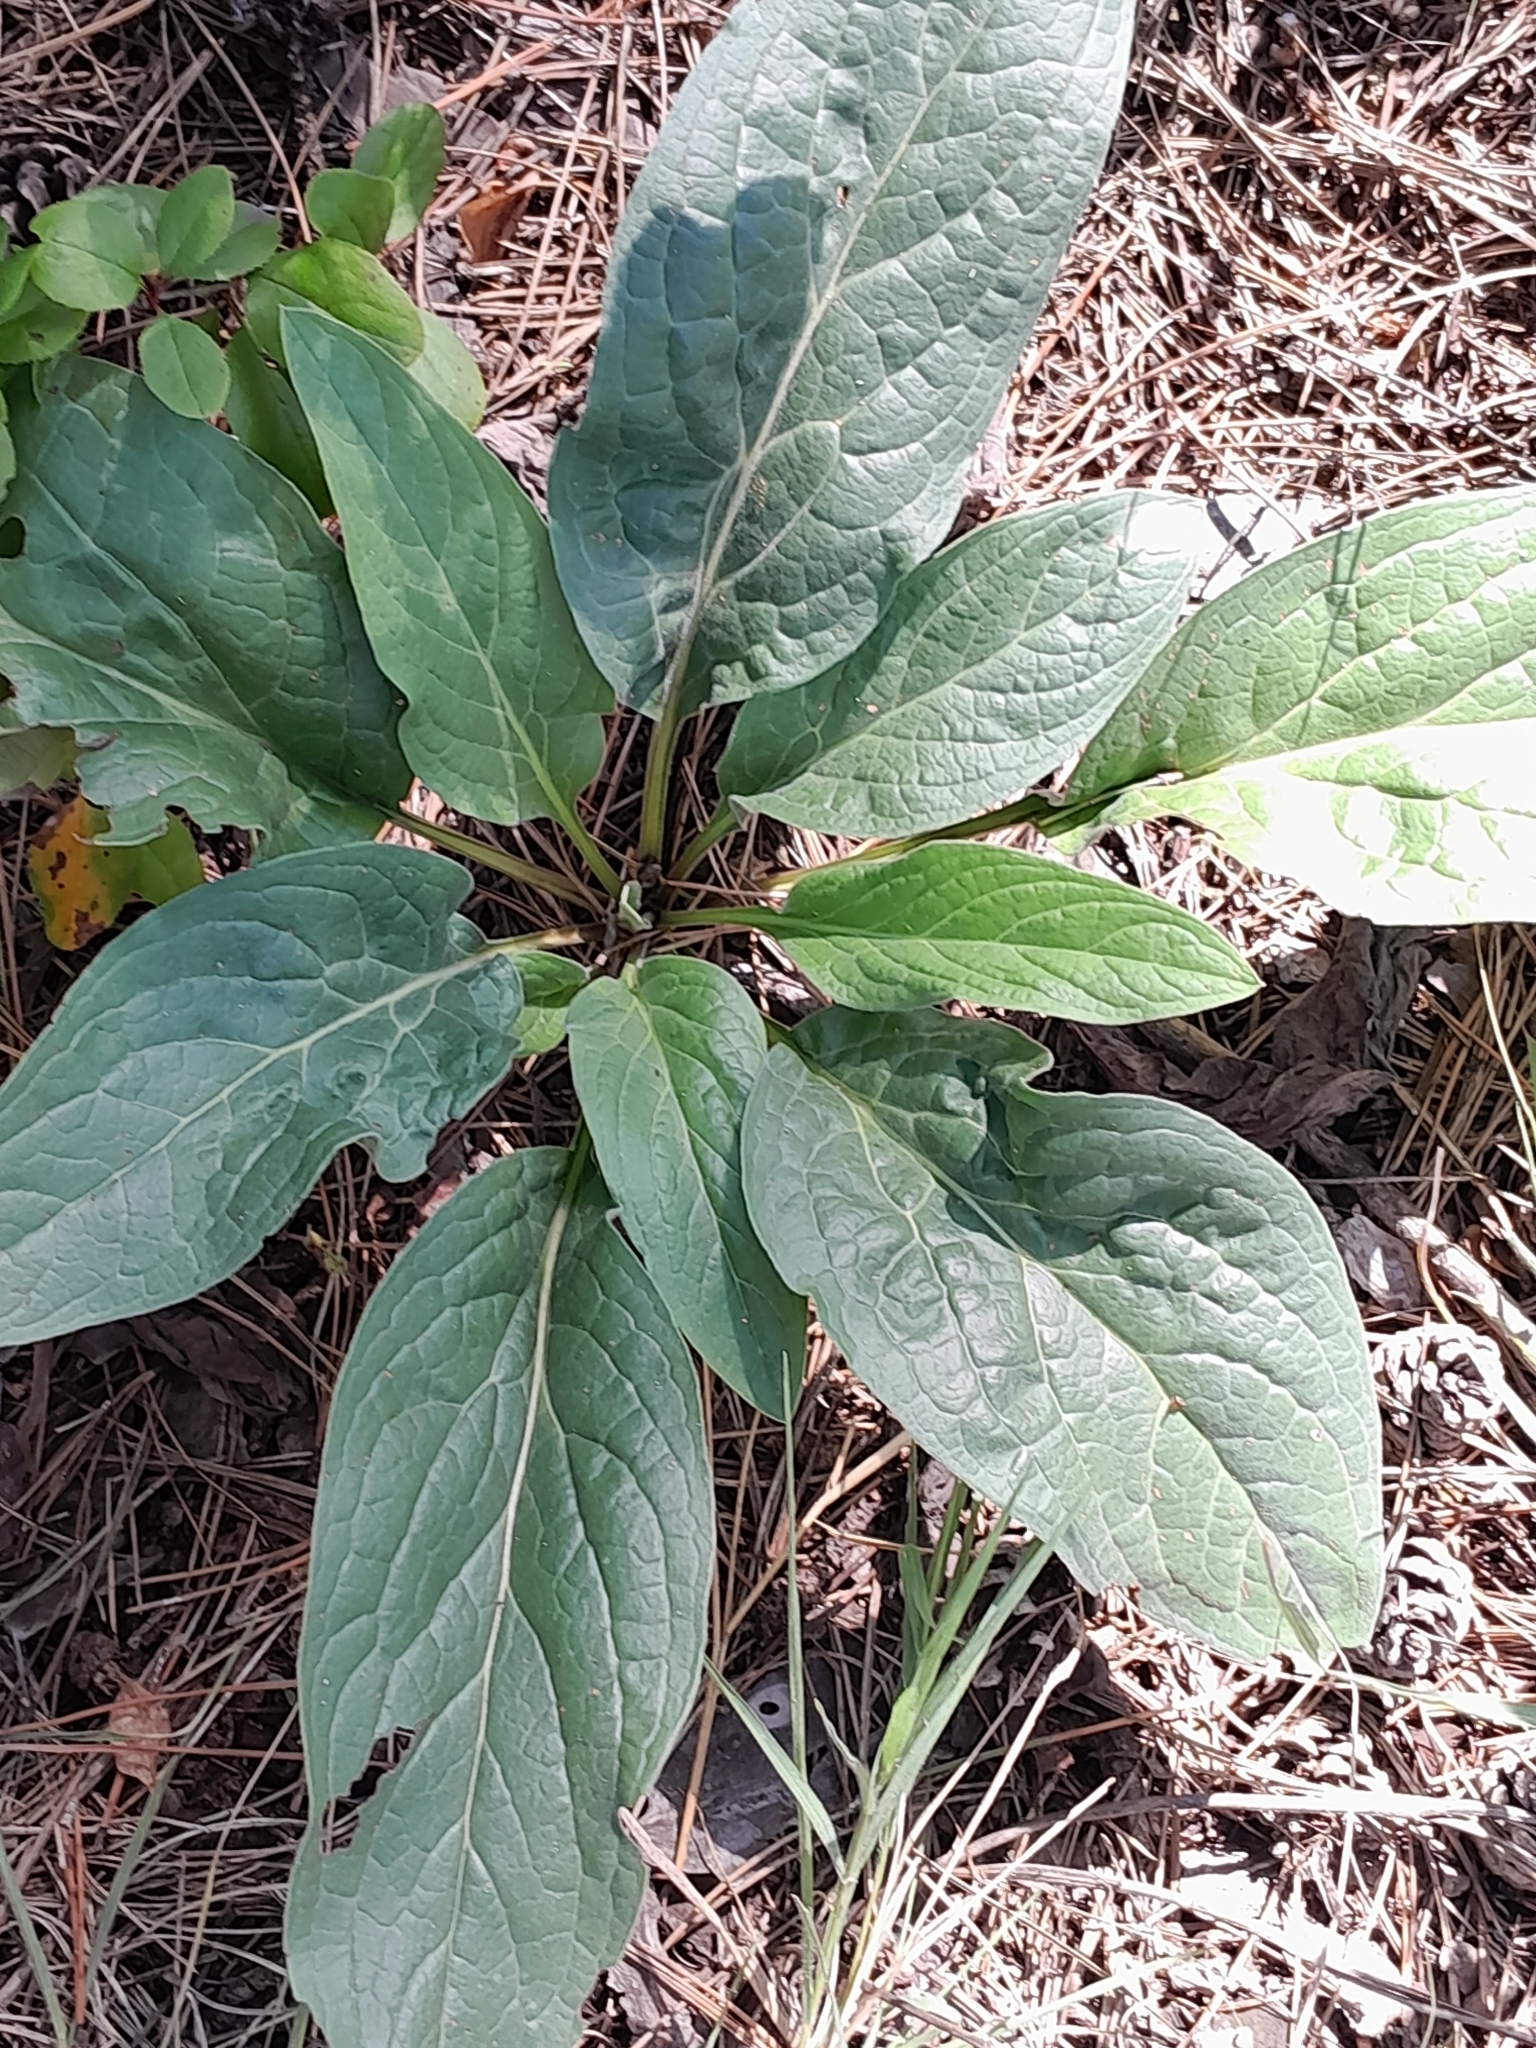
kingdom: Plantae
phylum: Tracheophyta
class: Magnoliopsida
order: Boraginales
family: Boraginaceae
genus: Cynoglossum
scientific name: Cynoglossum officinale
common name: Hound's-tongue
